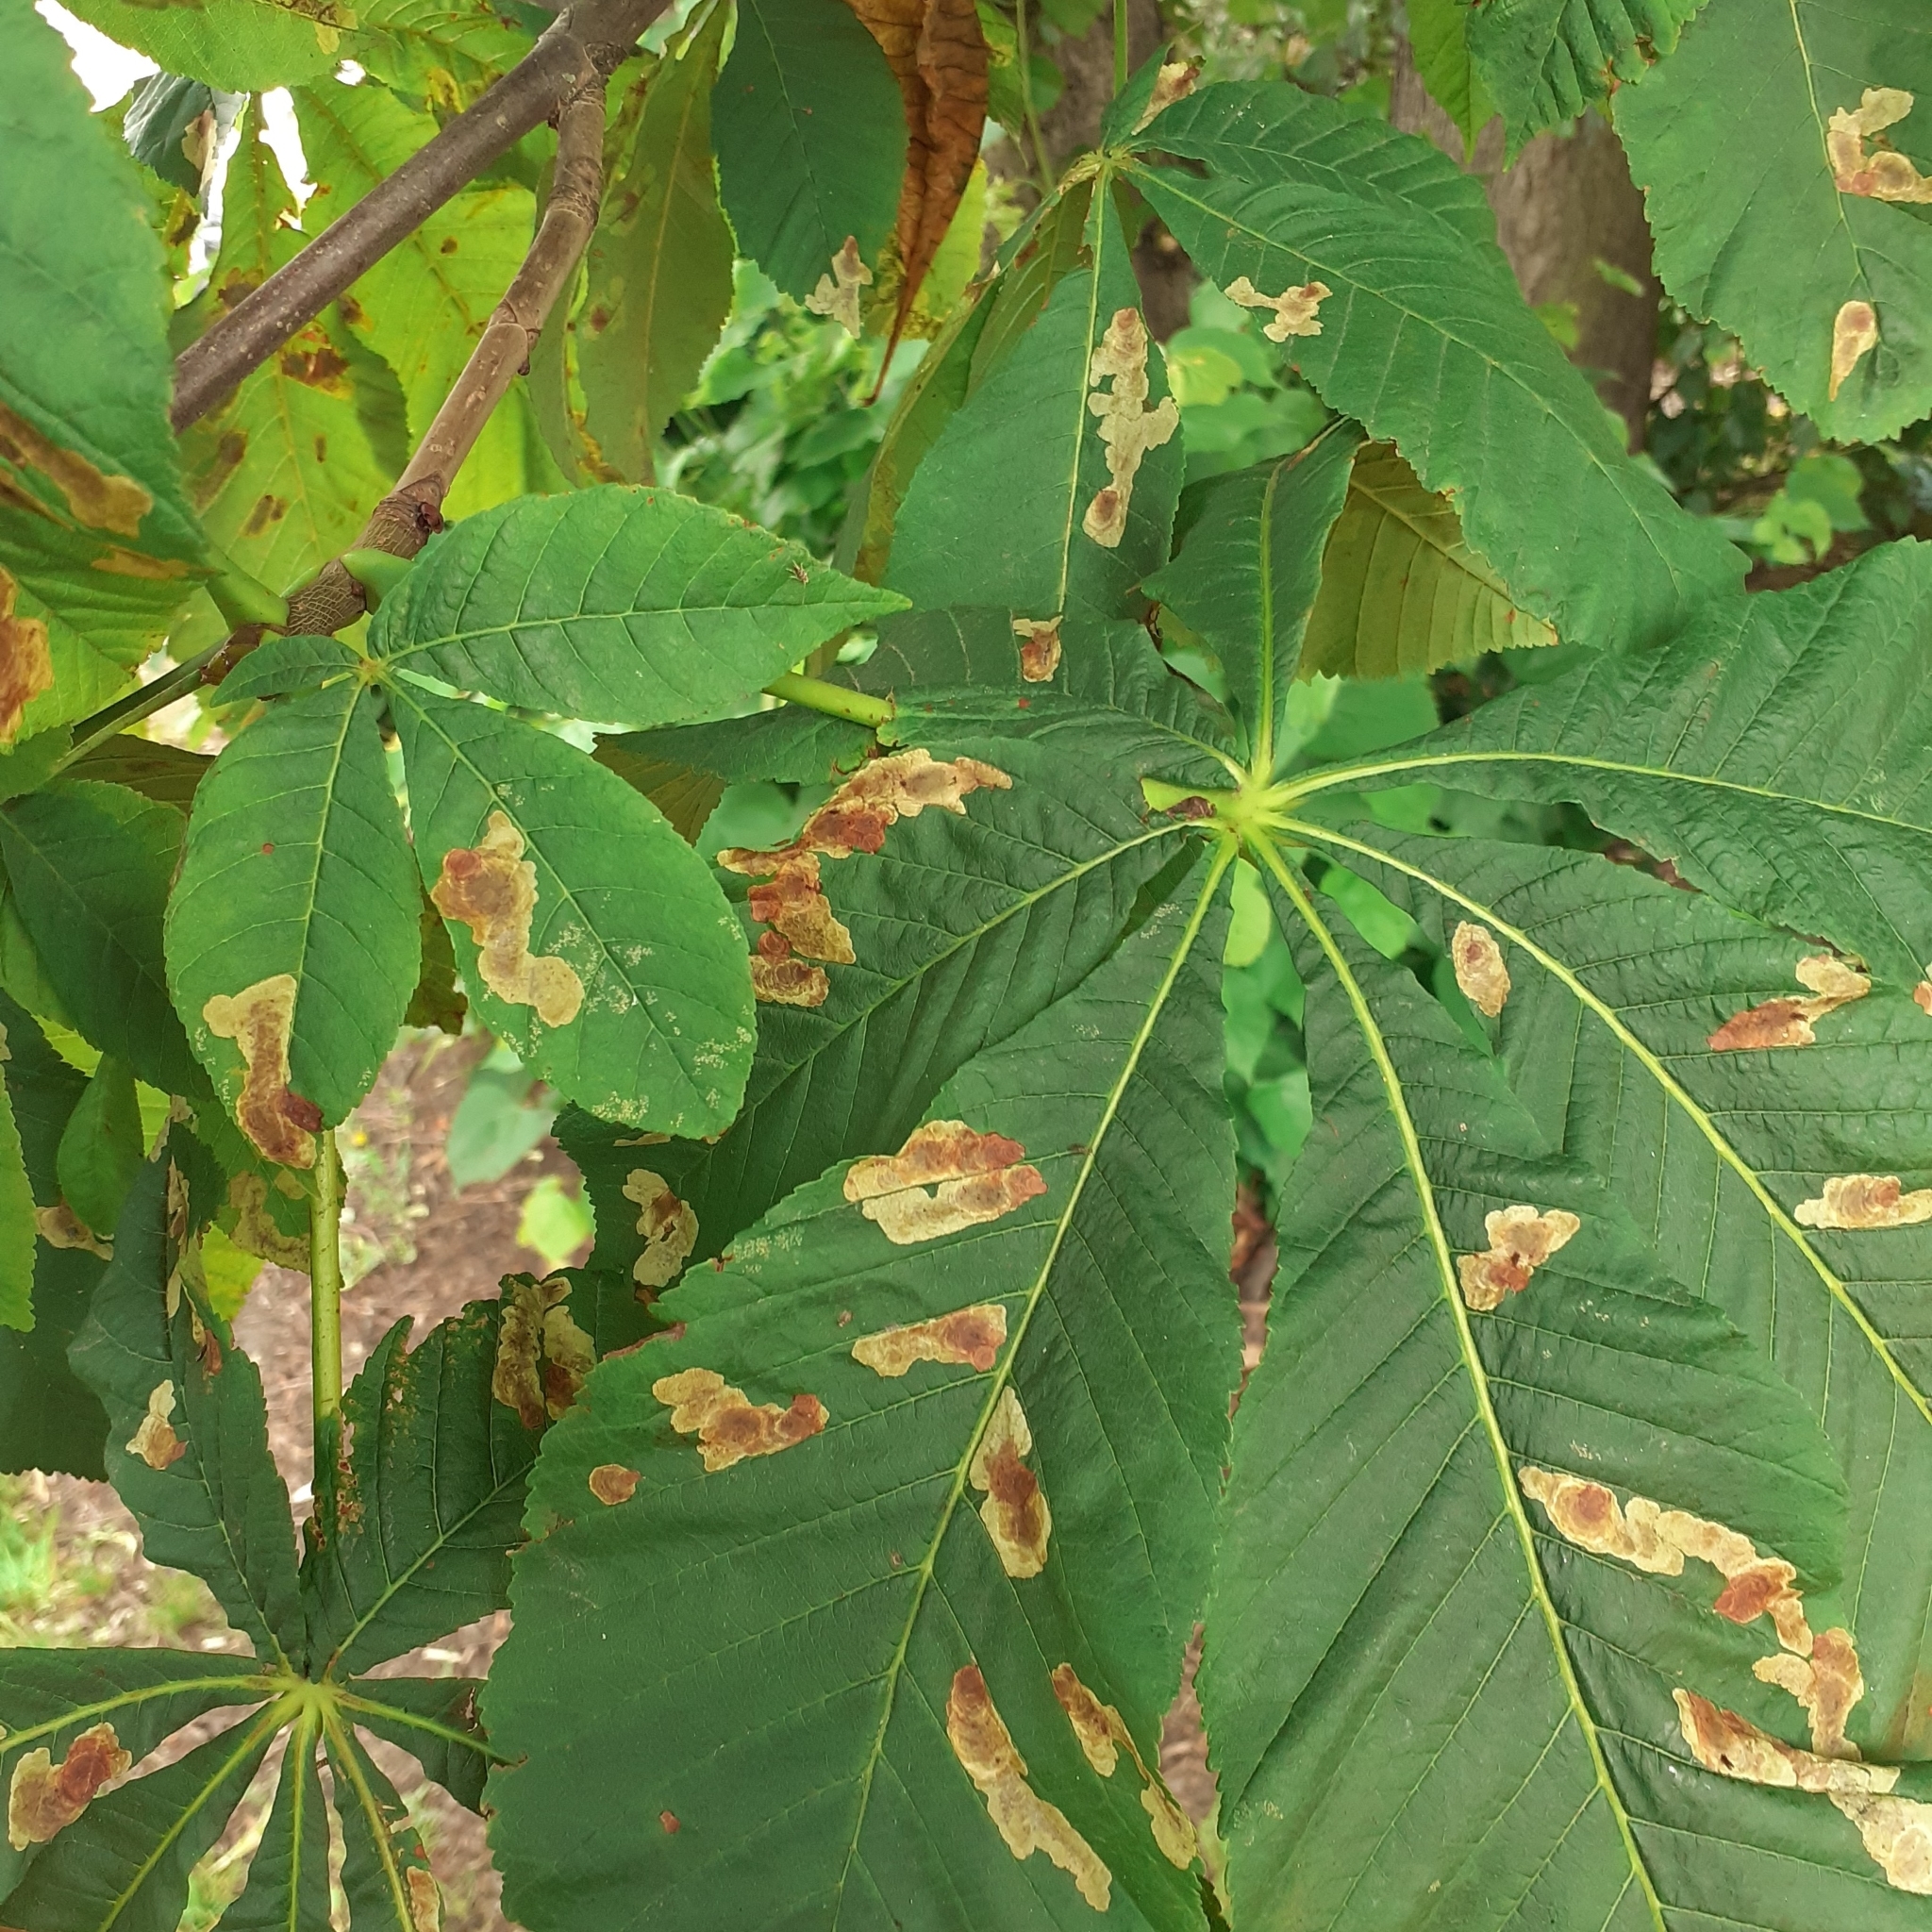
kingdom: Animalia
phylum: Arthropoda
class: Insecta
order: Lepidoptera
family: Gracillariidae
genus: Cameraria
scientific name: Cameraria ohridella
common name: Horse-chestnut leaf-miner
